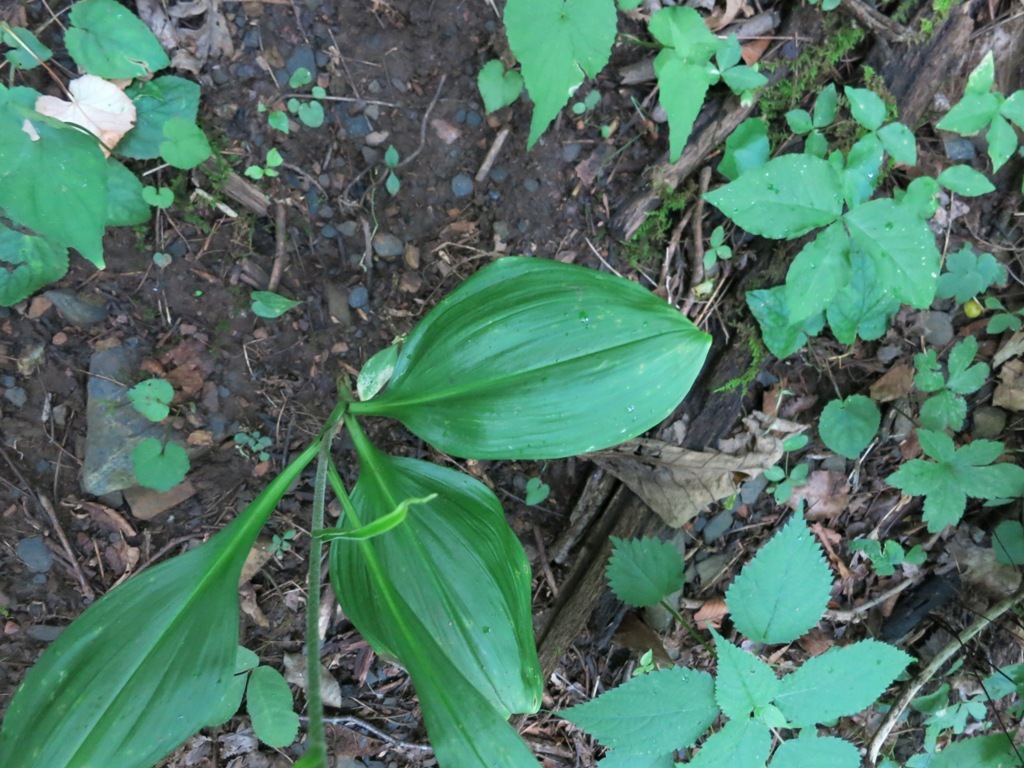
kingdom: Plantae
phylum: Tracheophyta
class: Liliopsida
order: Liliales
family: Melanthiaceae
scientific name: Melanthiaceae
